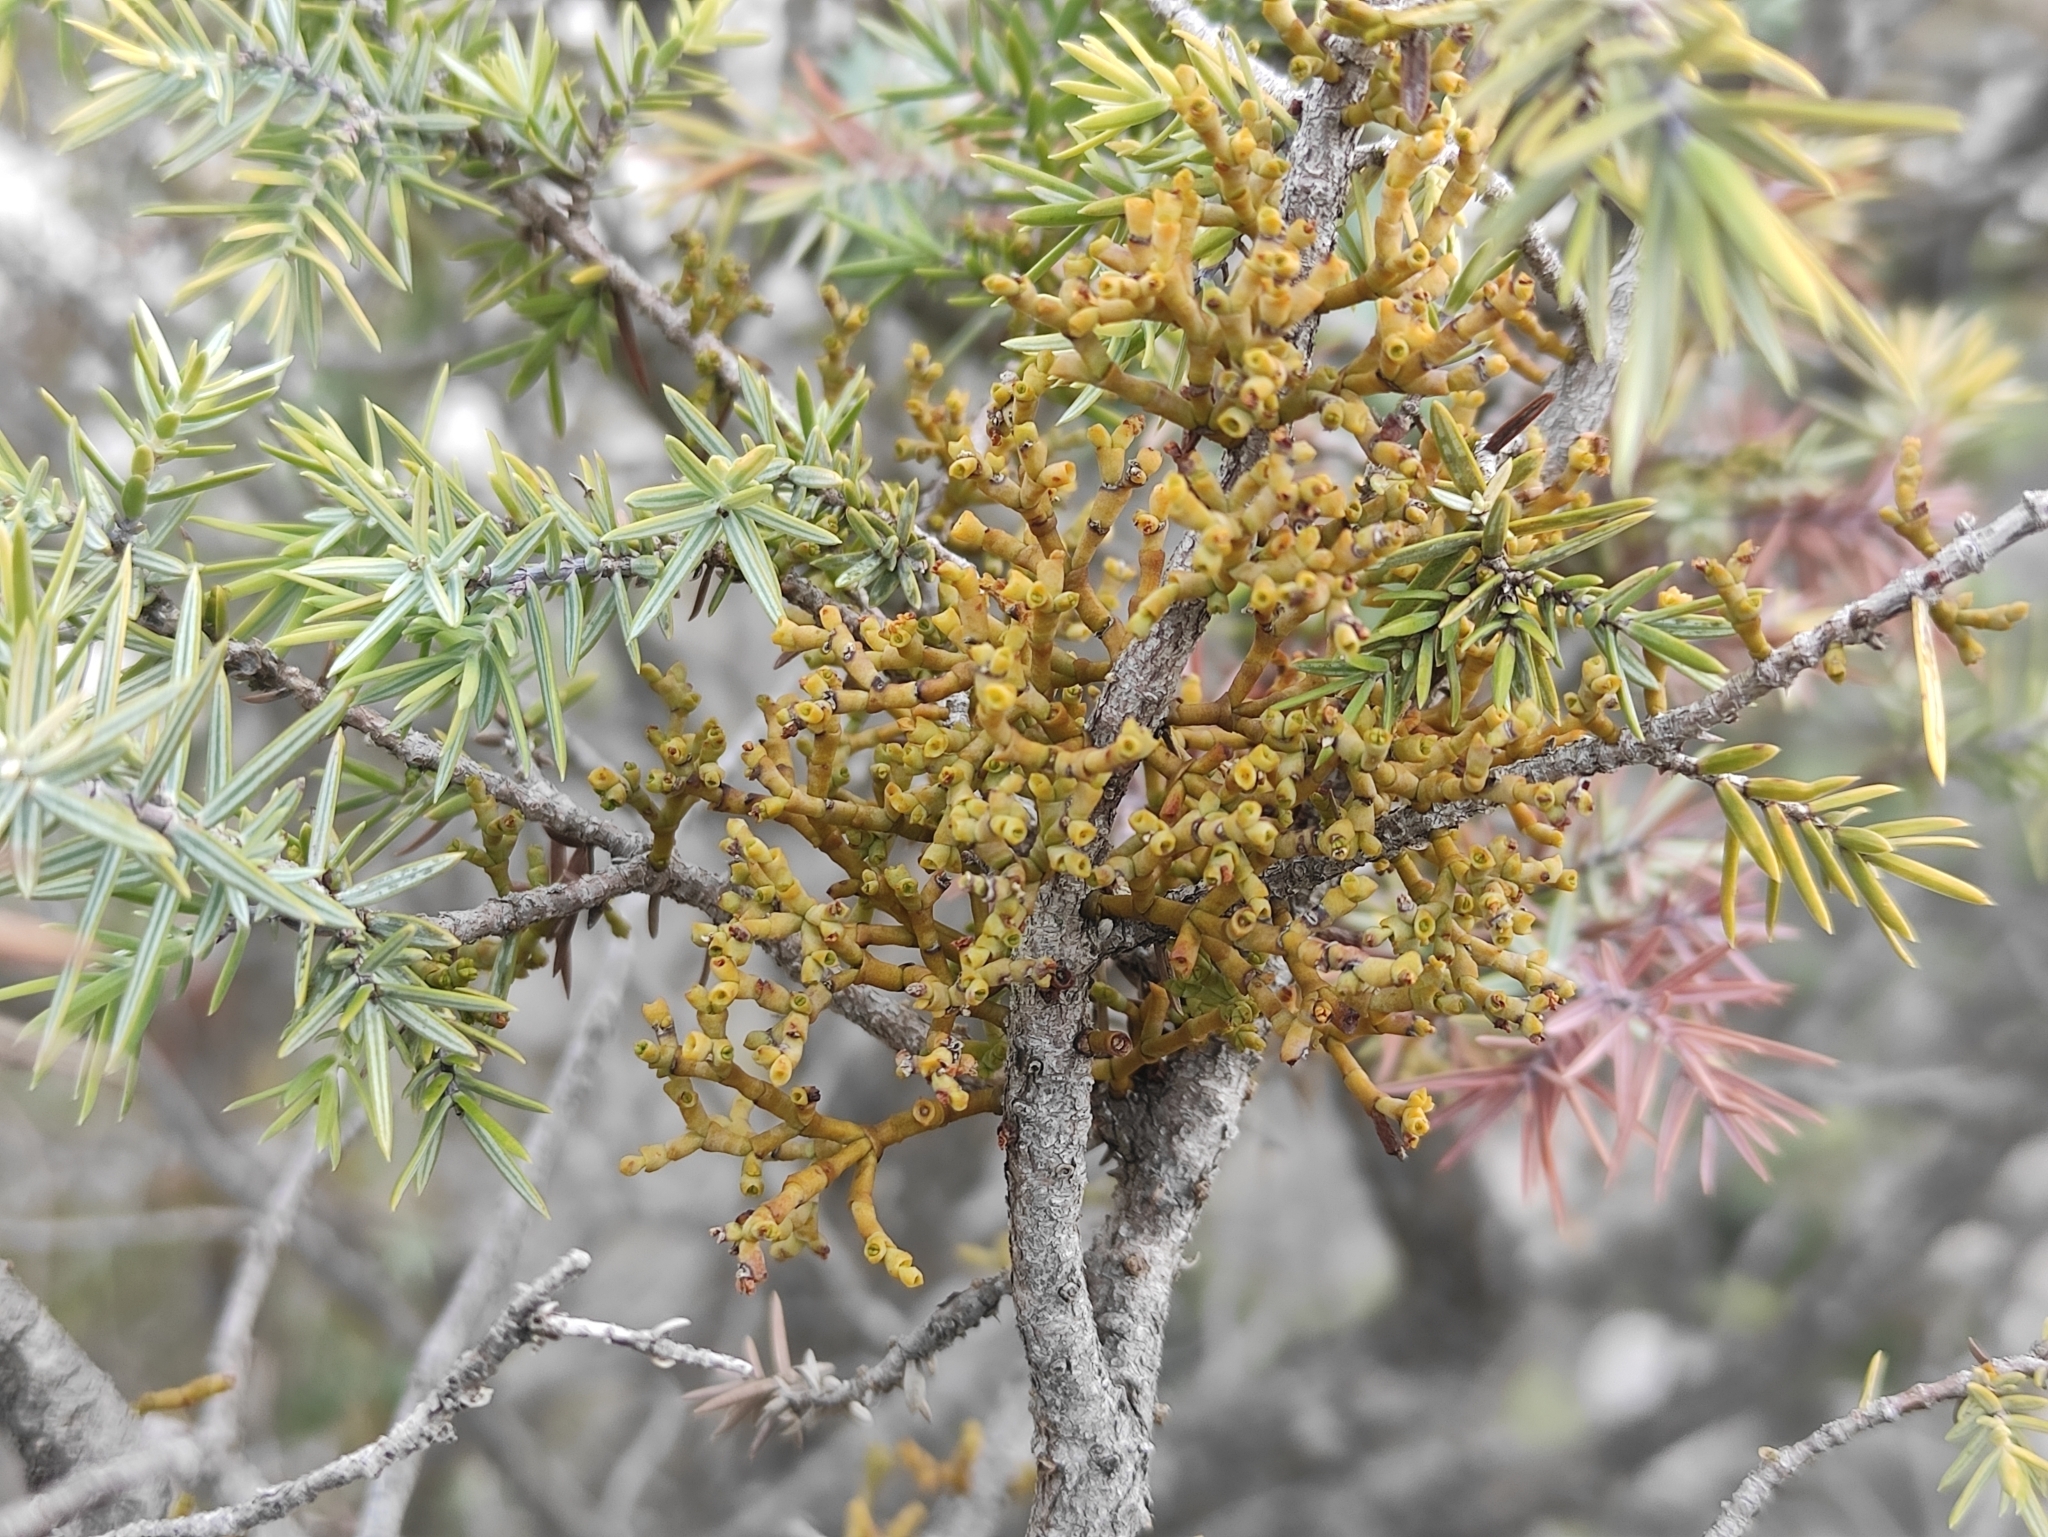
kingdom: Plantae
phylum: Tracheophyta
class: Magnoliopsida
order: Santalales
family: Viscaceae
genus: Arceuthobium
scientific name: Arceuthobium oxycedri
